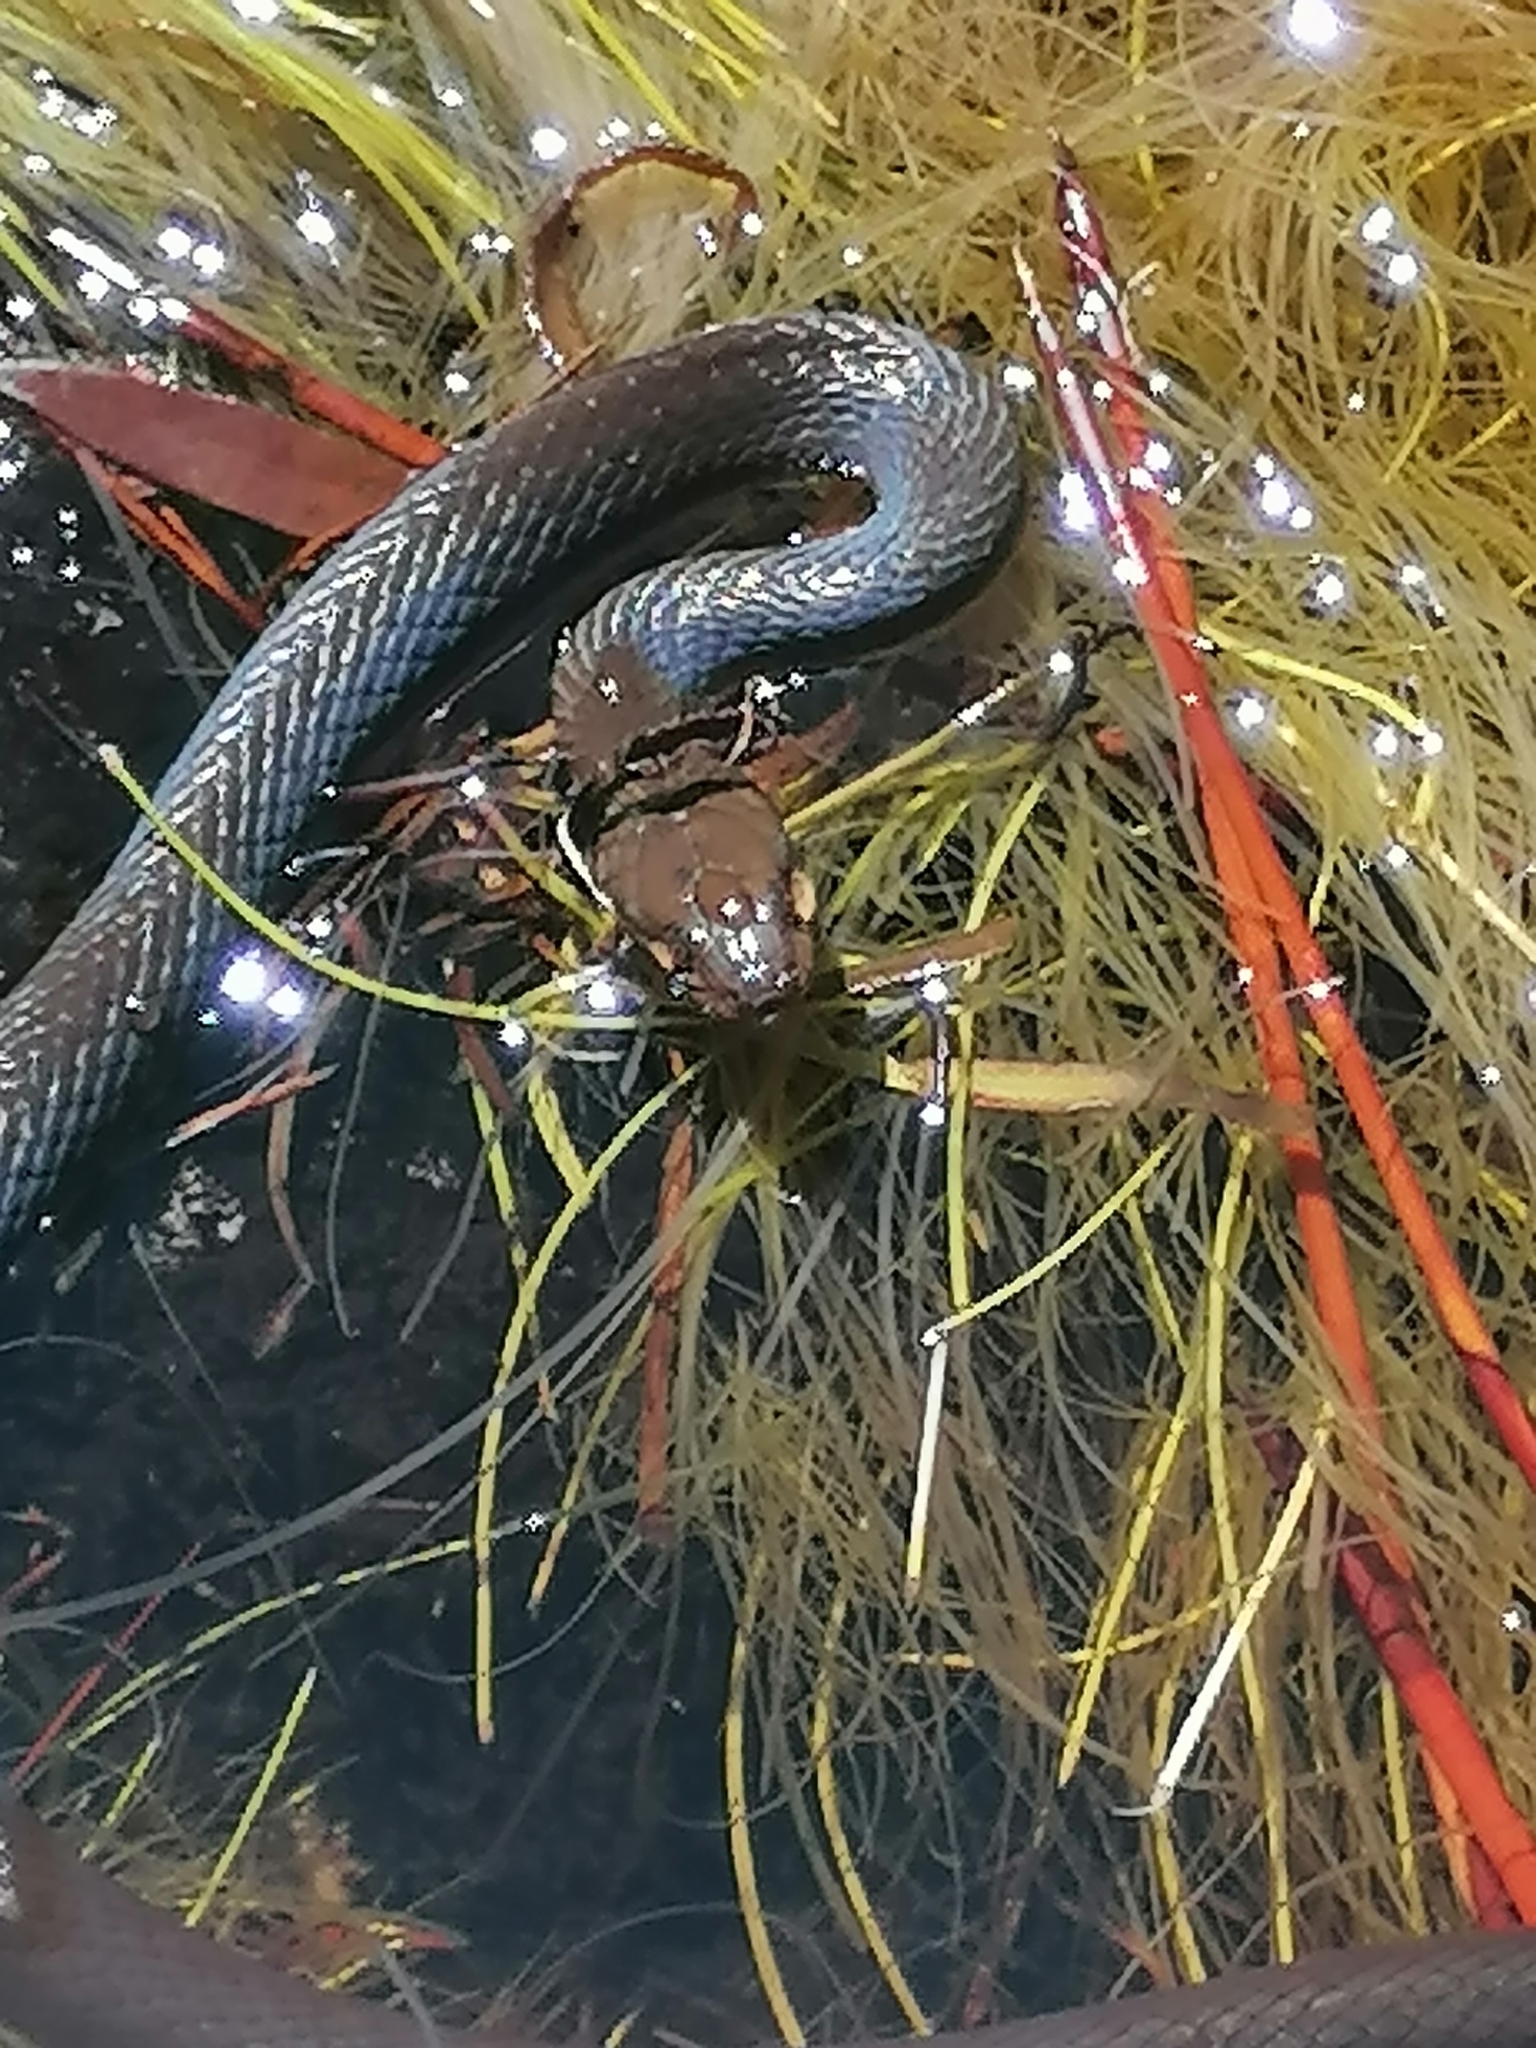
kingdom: Animalia
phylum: Chordata
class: Squamata
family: Lamprophiidae
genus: Lycodonomorphus
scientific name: Lycodonomorphus rufulus
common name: Brown water snake
